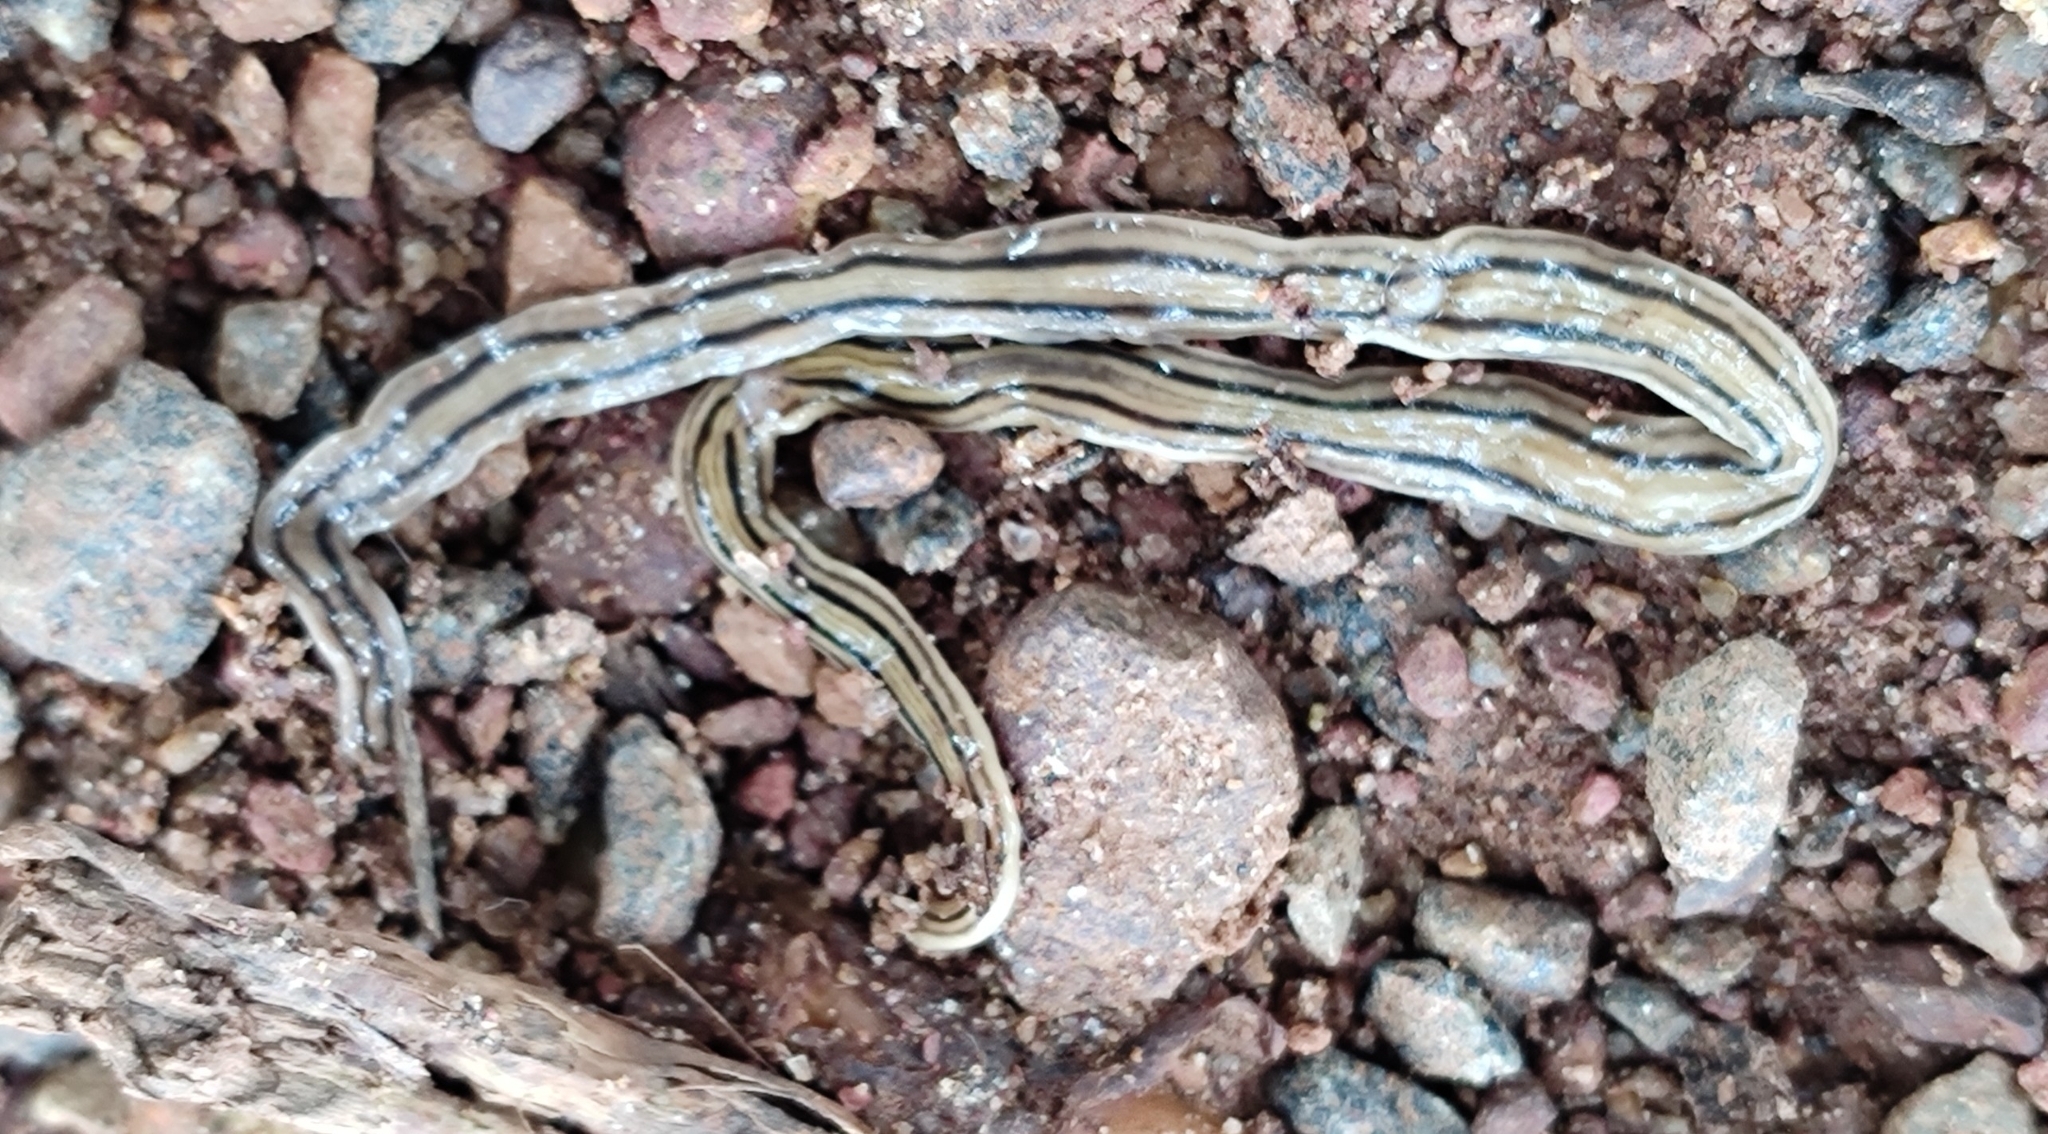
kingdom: Animalia
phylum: Platyhelminthes
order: Tricladida
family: Geoplanidae
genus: Dolichoplana
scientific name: Dolichoplana striata
